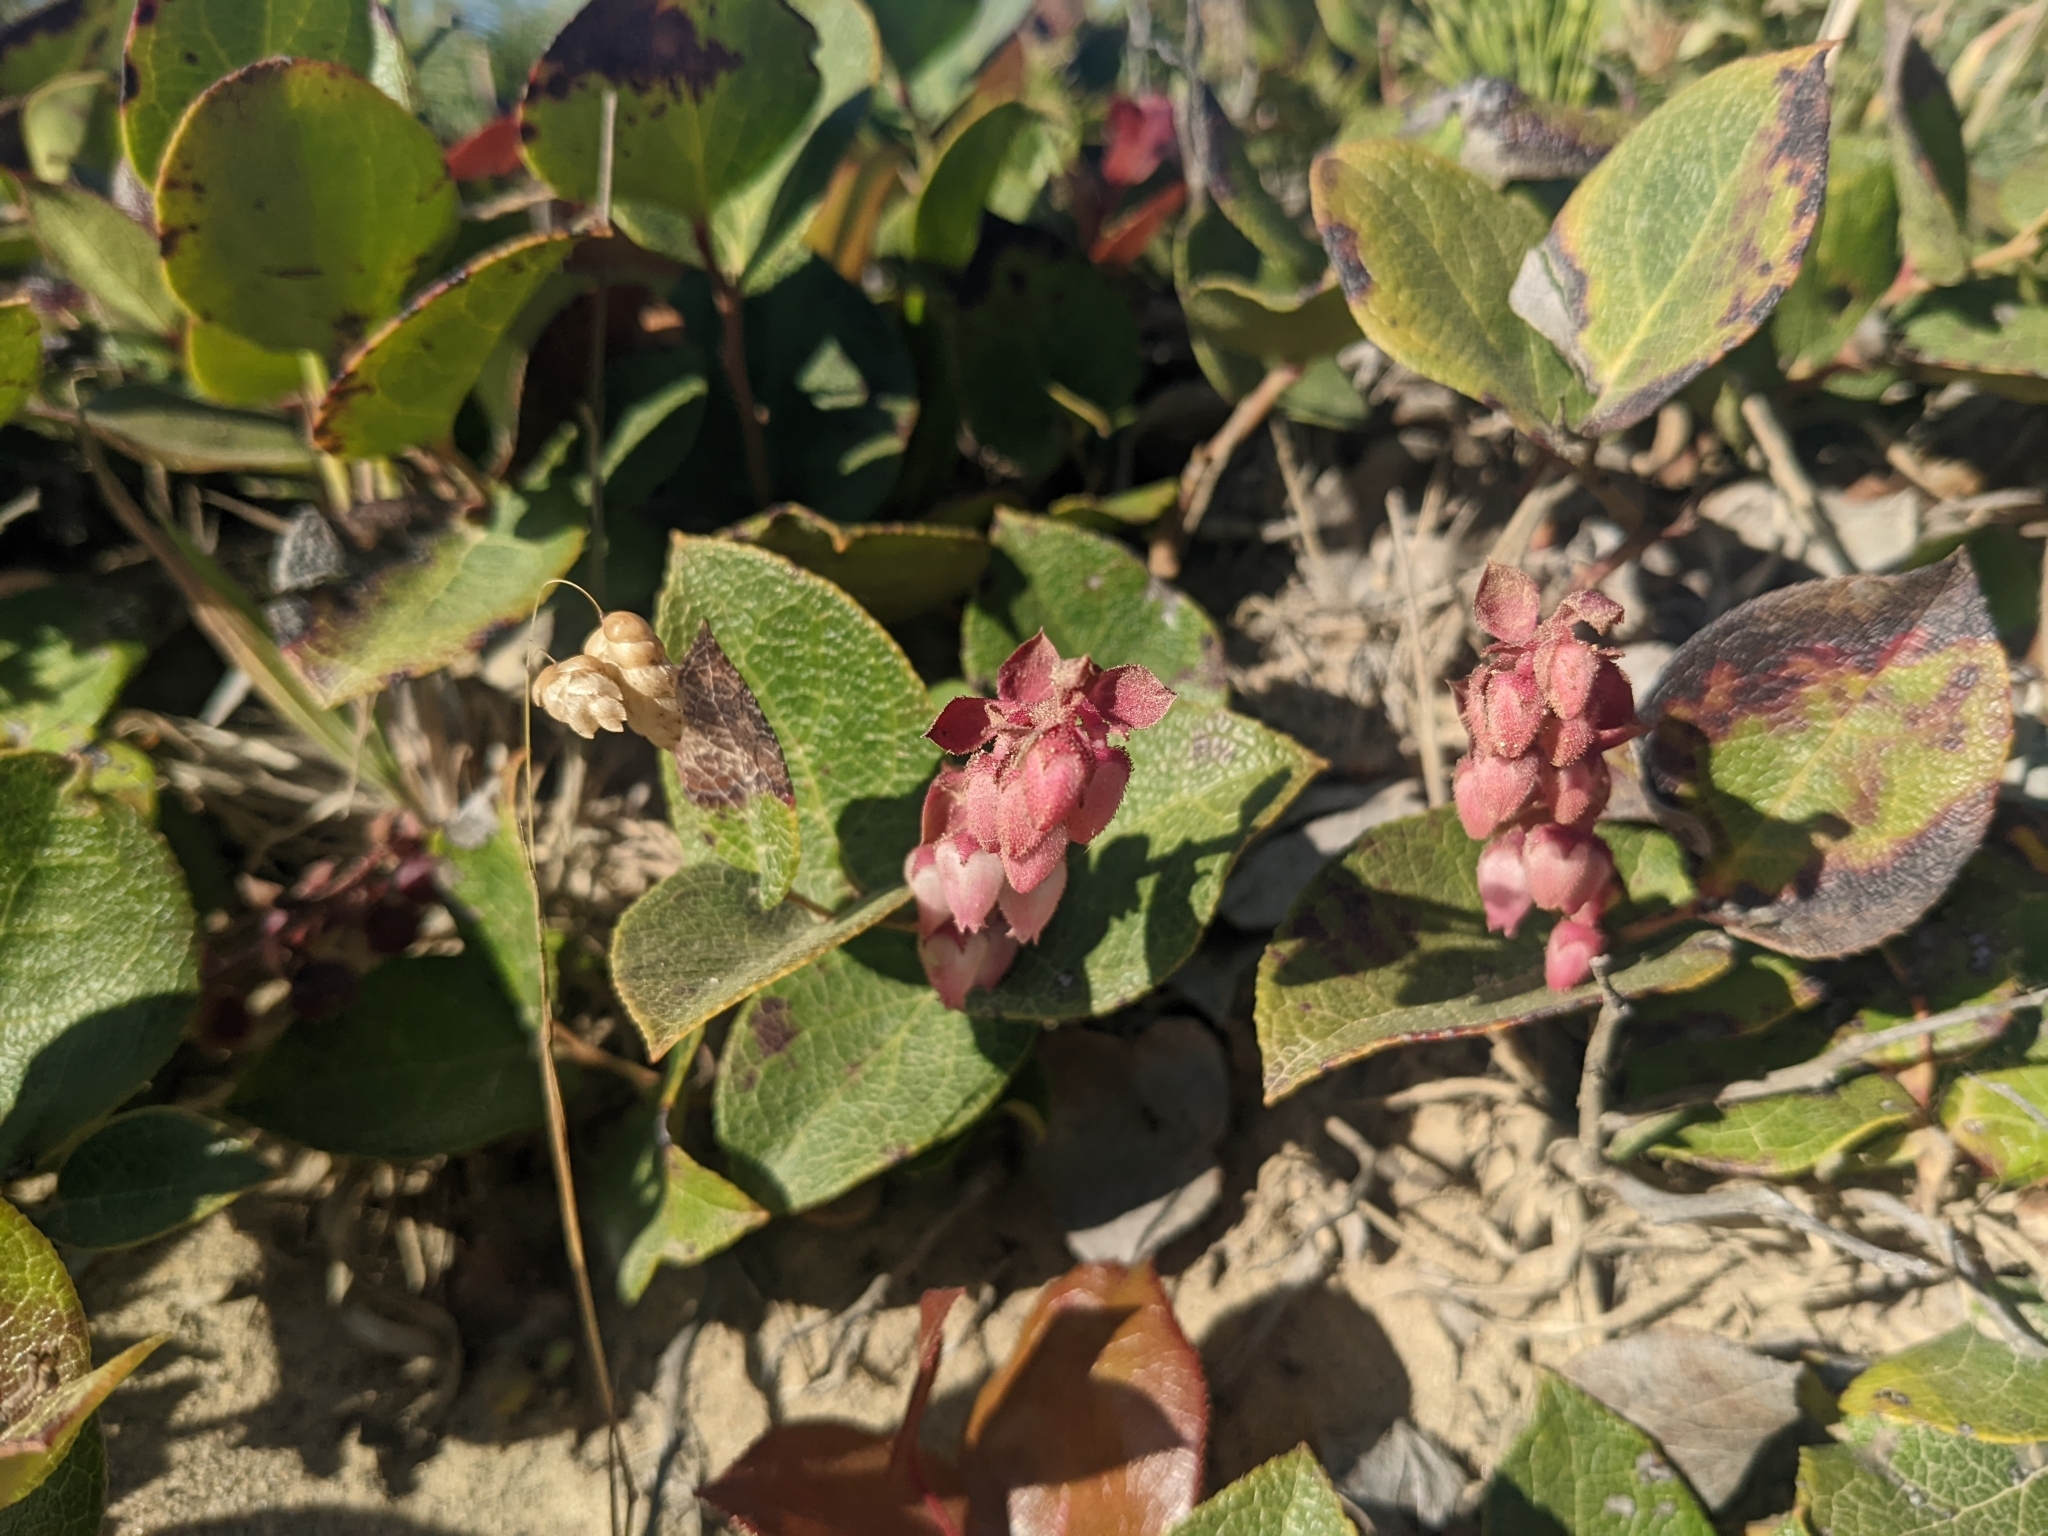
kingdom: Plantae
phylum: Tracheophyta
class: Magnoliopsida
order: Ericales
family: Ericaceae
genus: Gaultheria
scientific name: Gaultheria shallon
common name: Shallon
